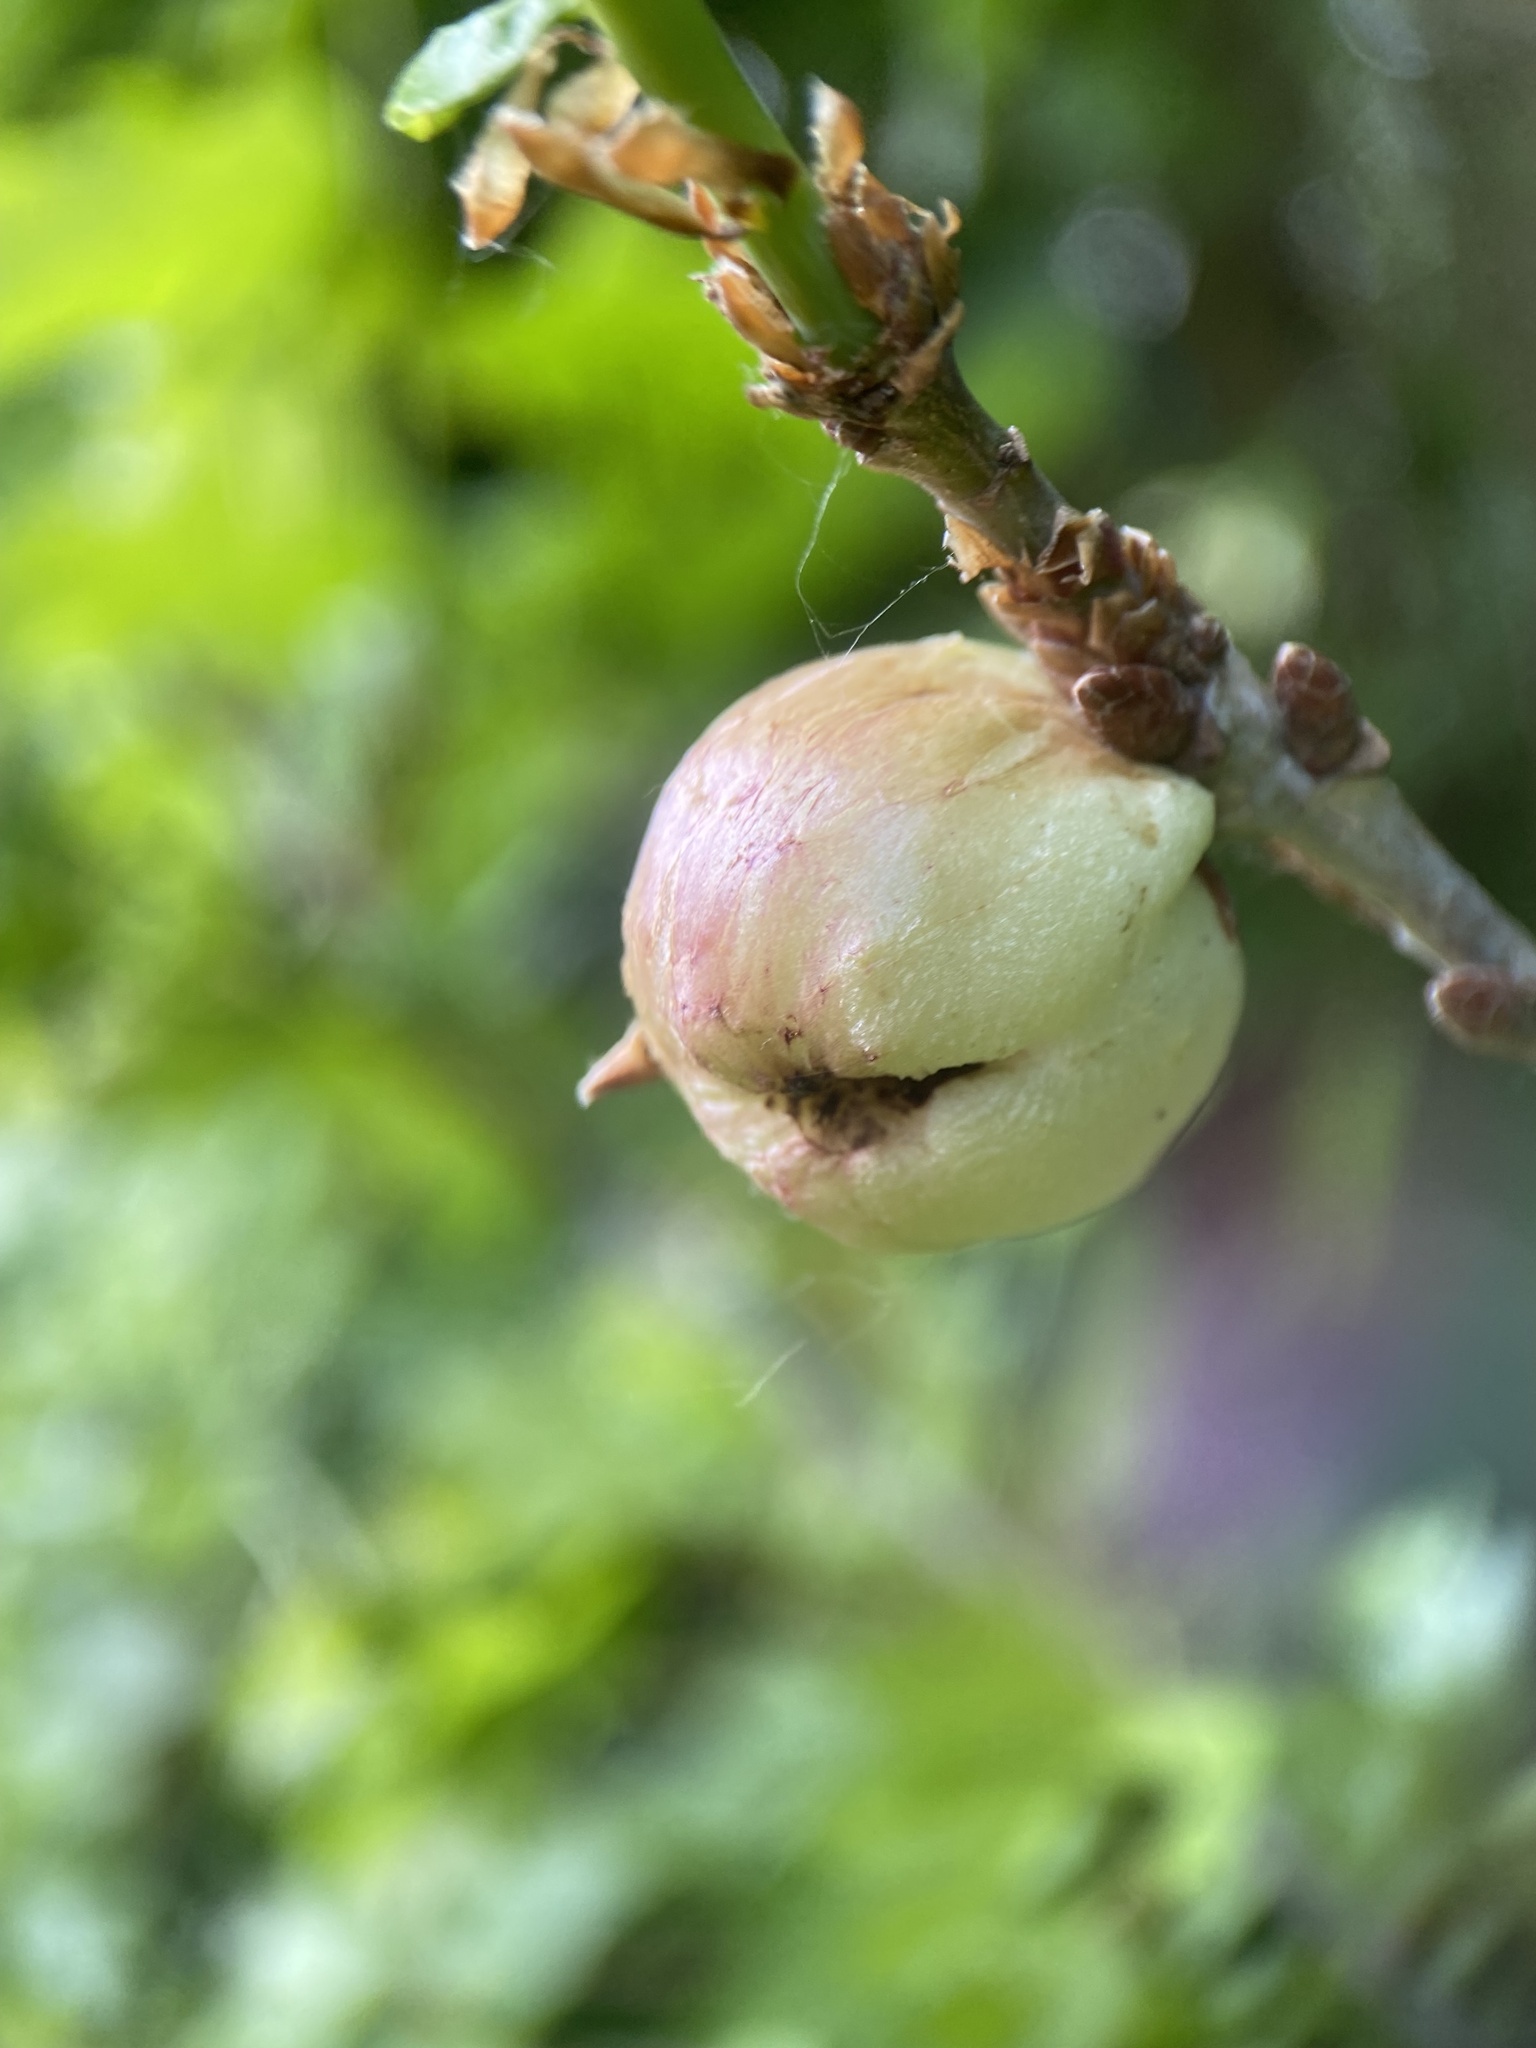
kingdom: Animalia
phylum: Arthropoda
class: Insecta
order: Hymenoptera
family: Cynipidae
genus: Biorhiza
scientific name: Biorhiza pallida
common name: Oak apple
